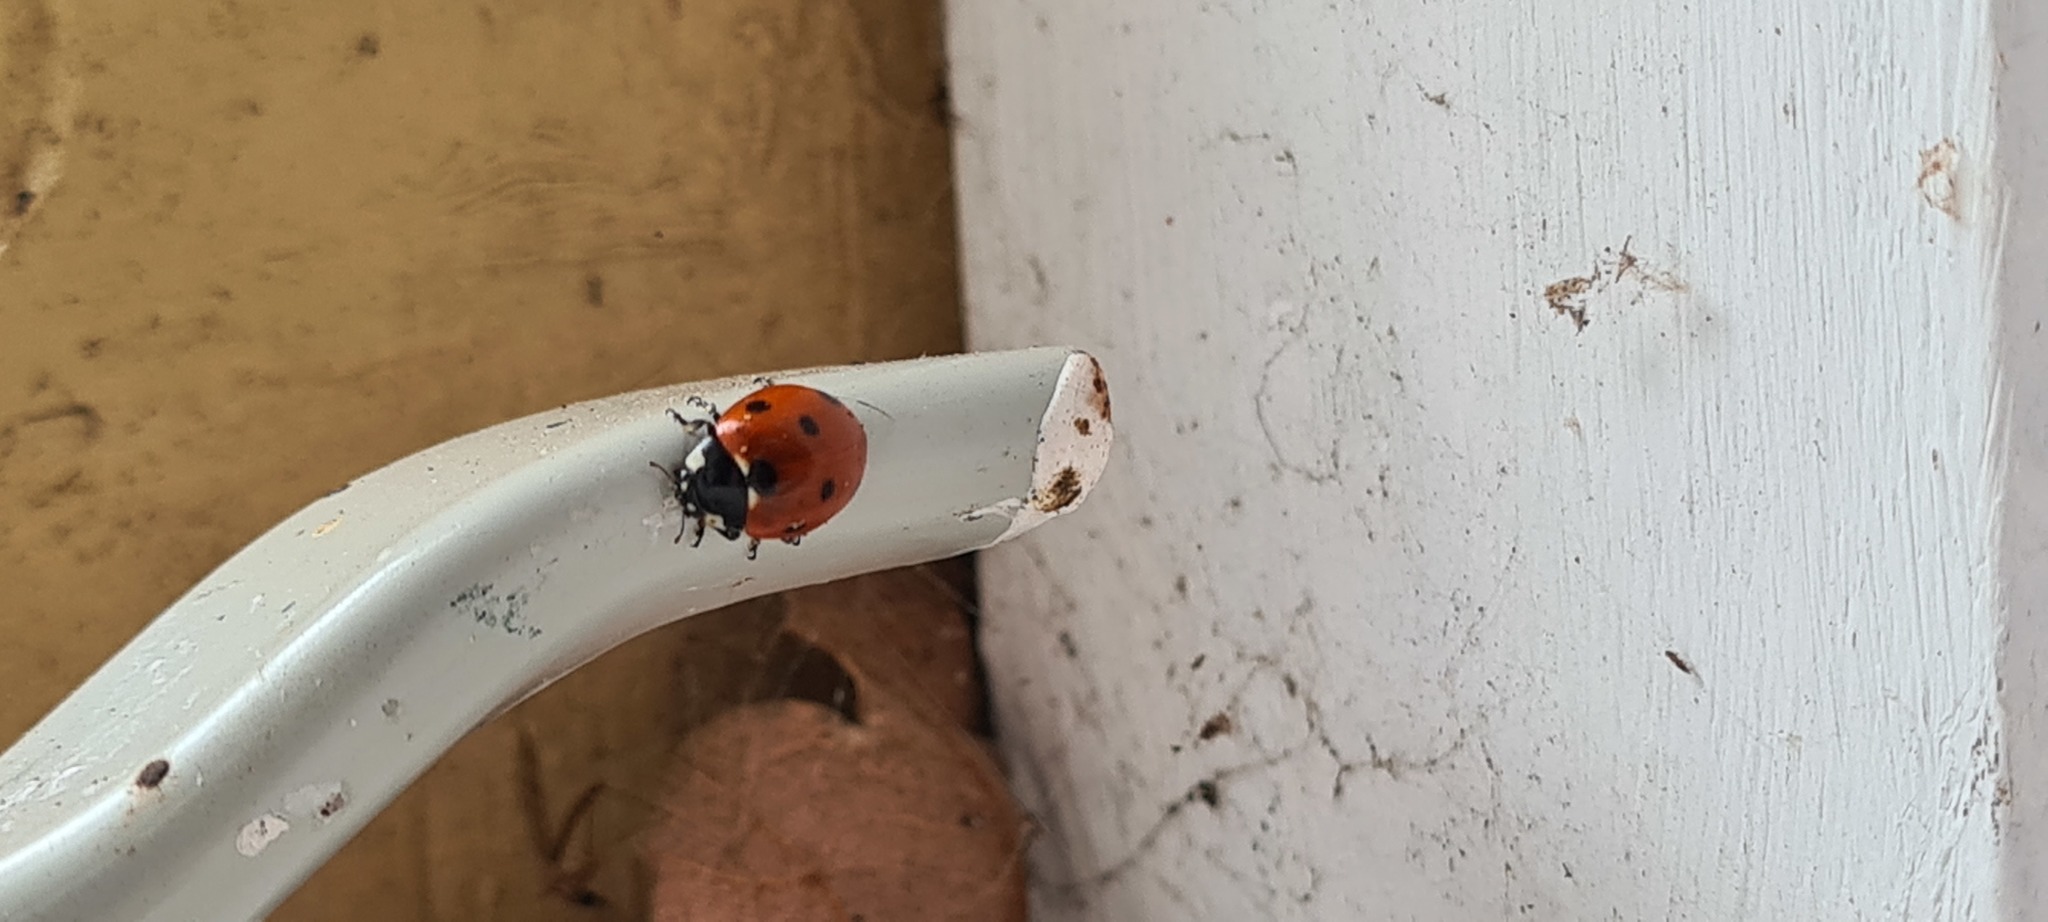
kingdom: Animalia
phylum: Arthropoda
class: Insecta
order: Coleoptera
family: Coccinellidae
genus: Coccinella
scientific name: Coccinella septempunctata
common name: Sevenspotted lady beetle
